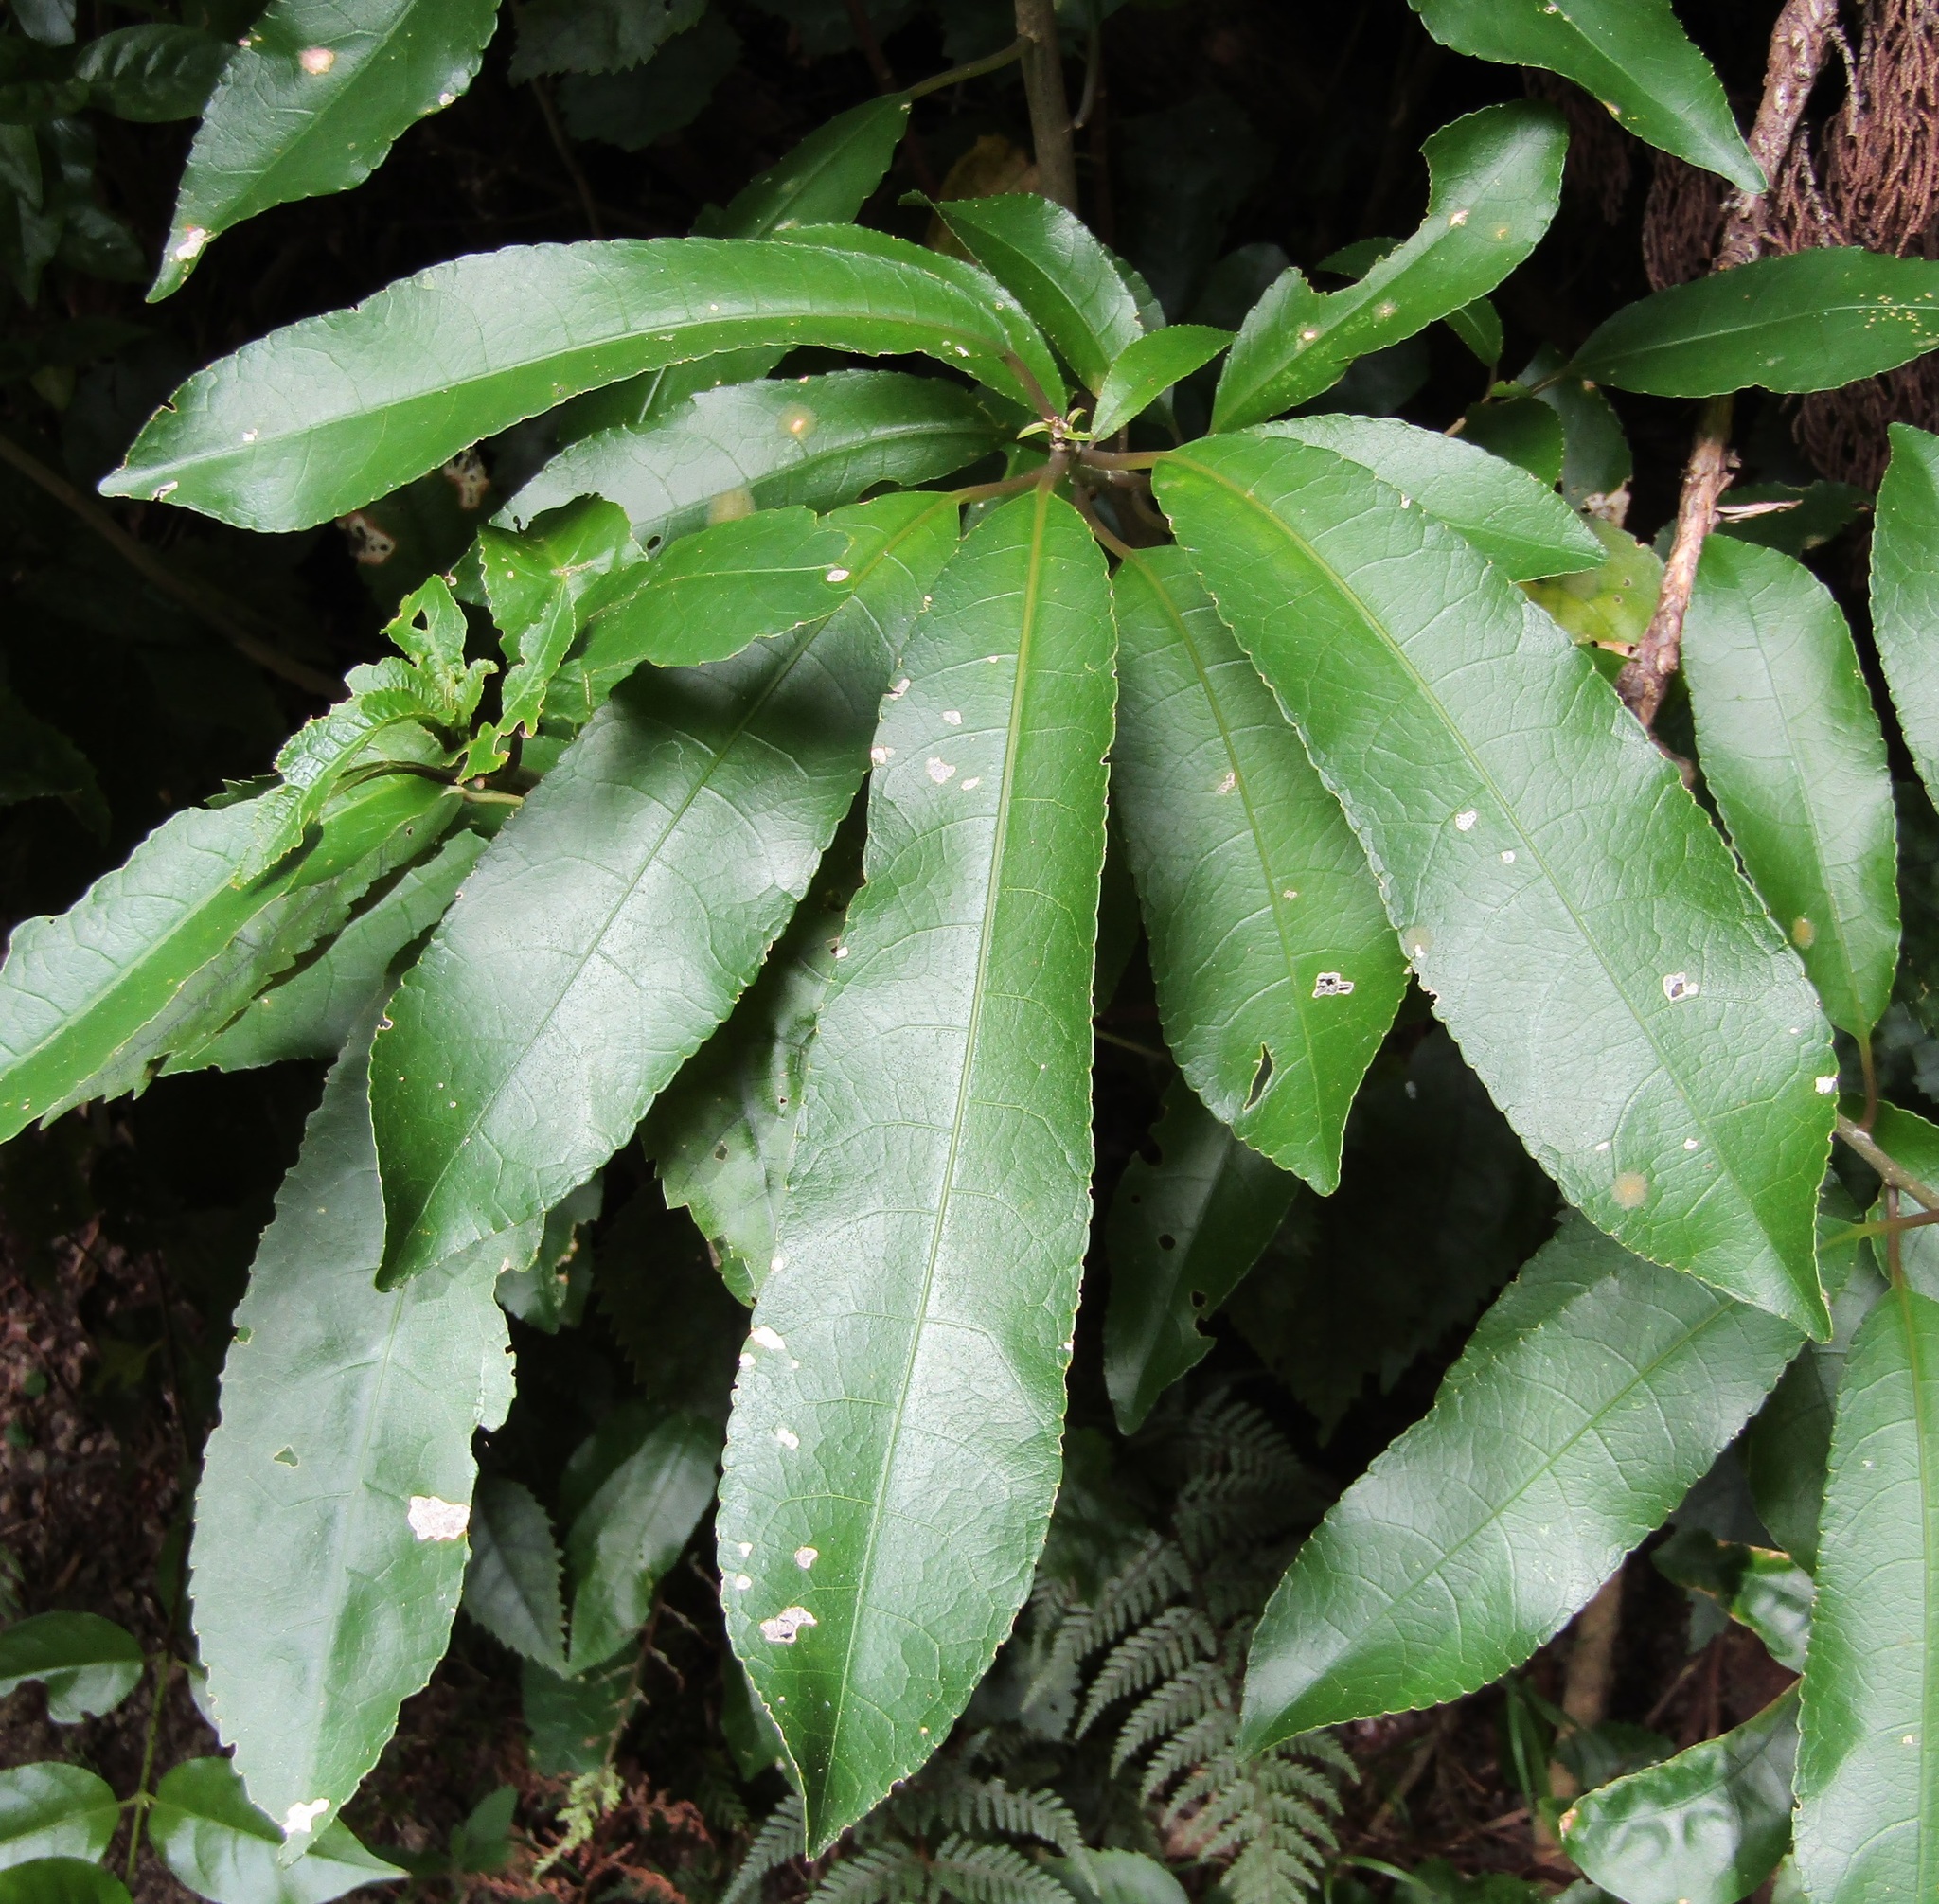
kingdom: Plantae
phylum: Tracheophyta
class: Magnoliopsida
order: Malpighiales
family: Violaceae
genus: Melicytus
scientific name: Melicytus ramiflorus
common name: Mahoe
